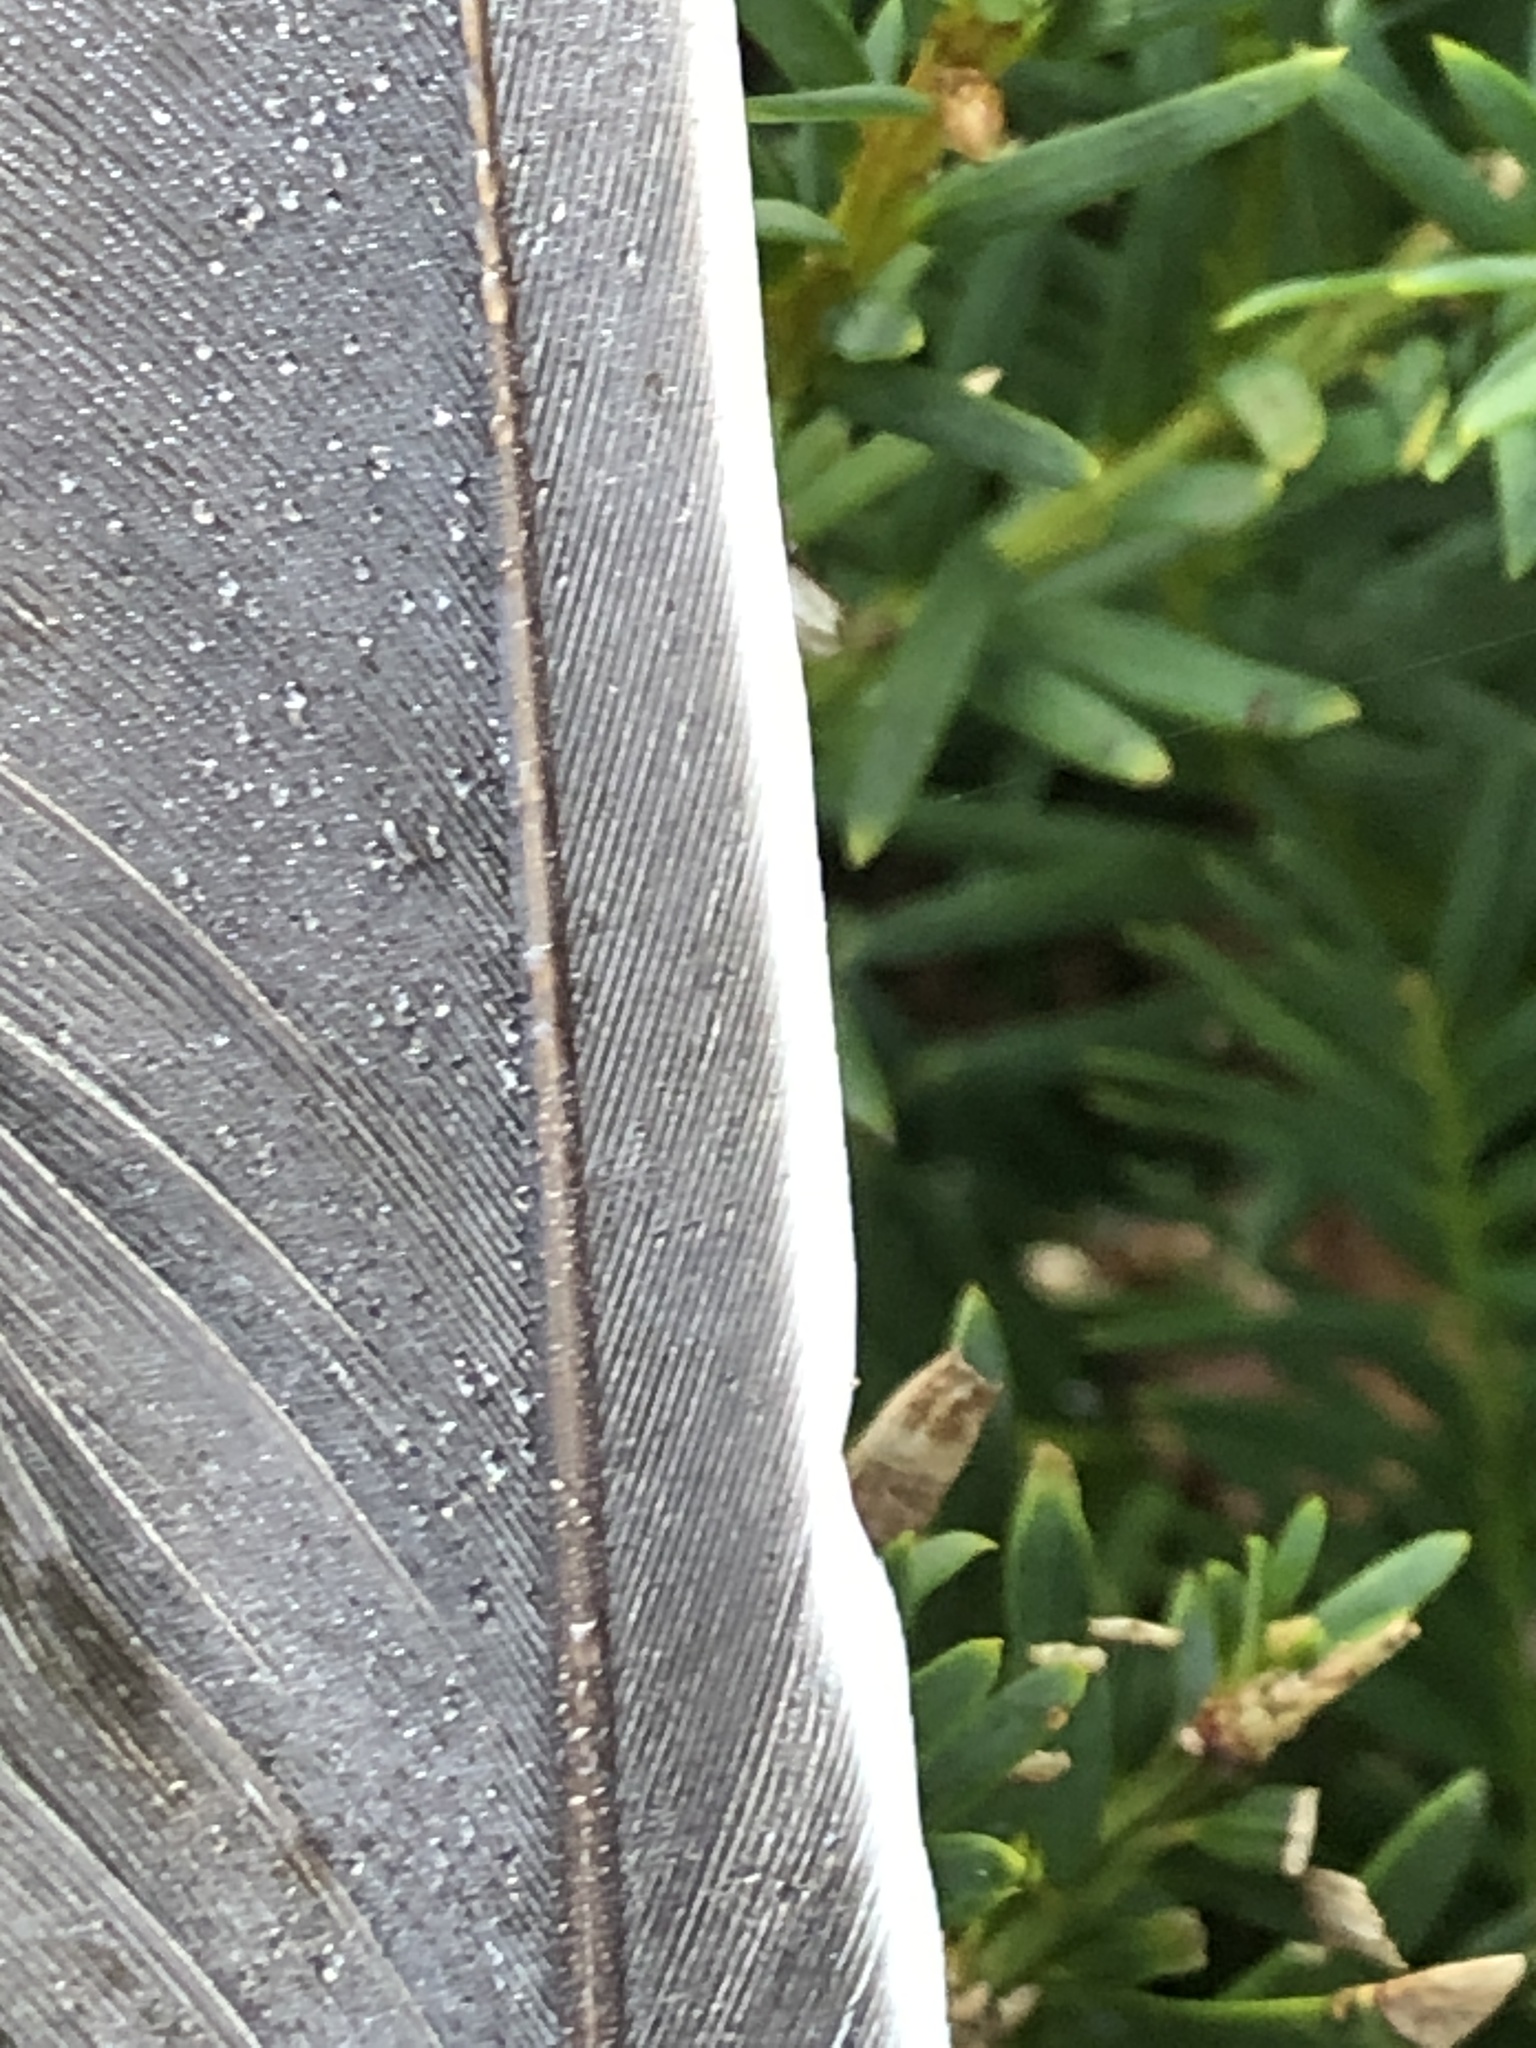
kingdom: Animalia
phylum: Chordata
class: Aves
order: Columbiformes
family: Columbidae
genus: Columba
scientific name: Columba palumbus
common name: Common wood pigeon
